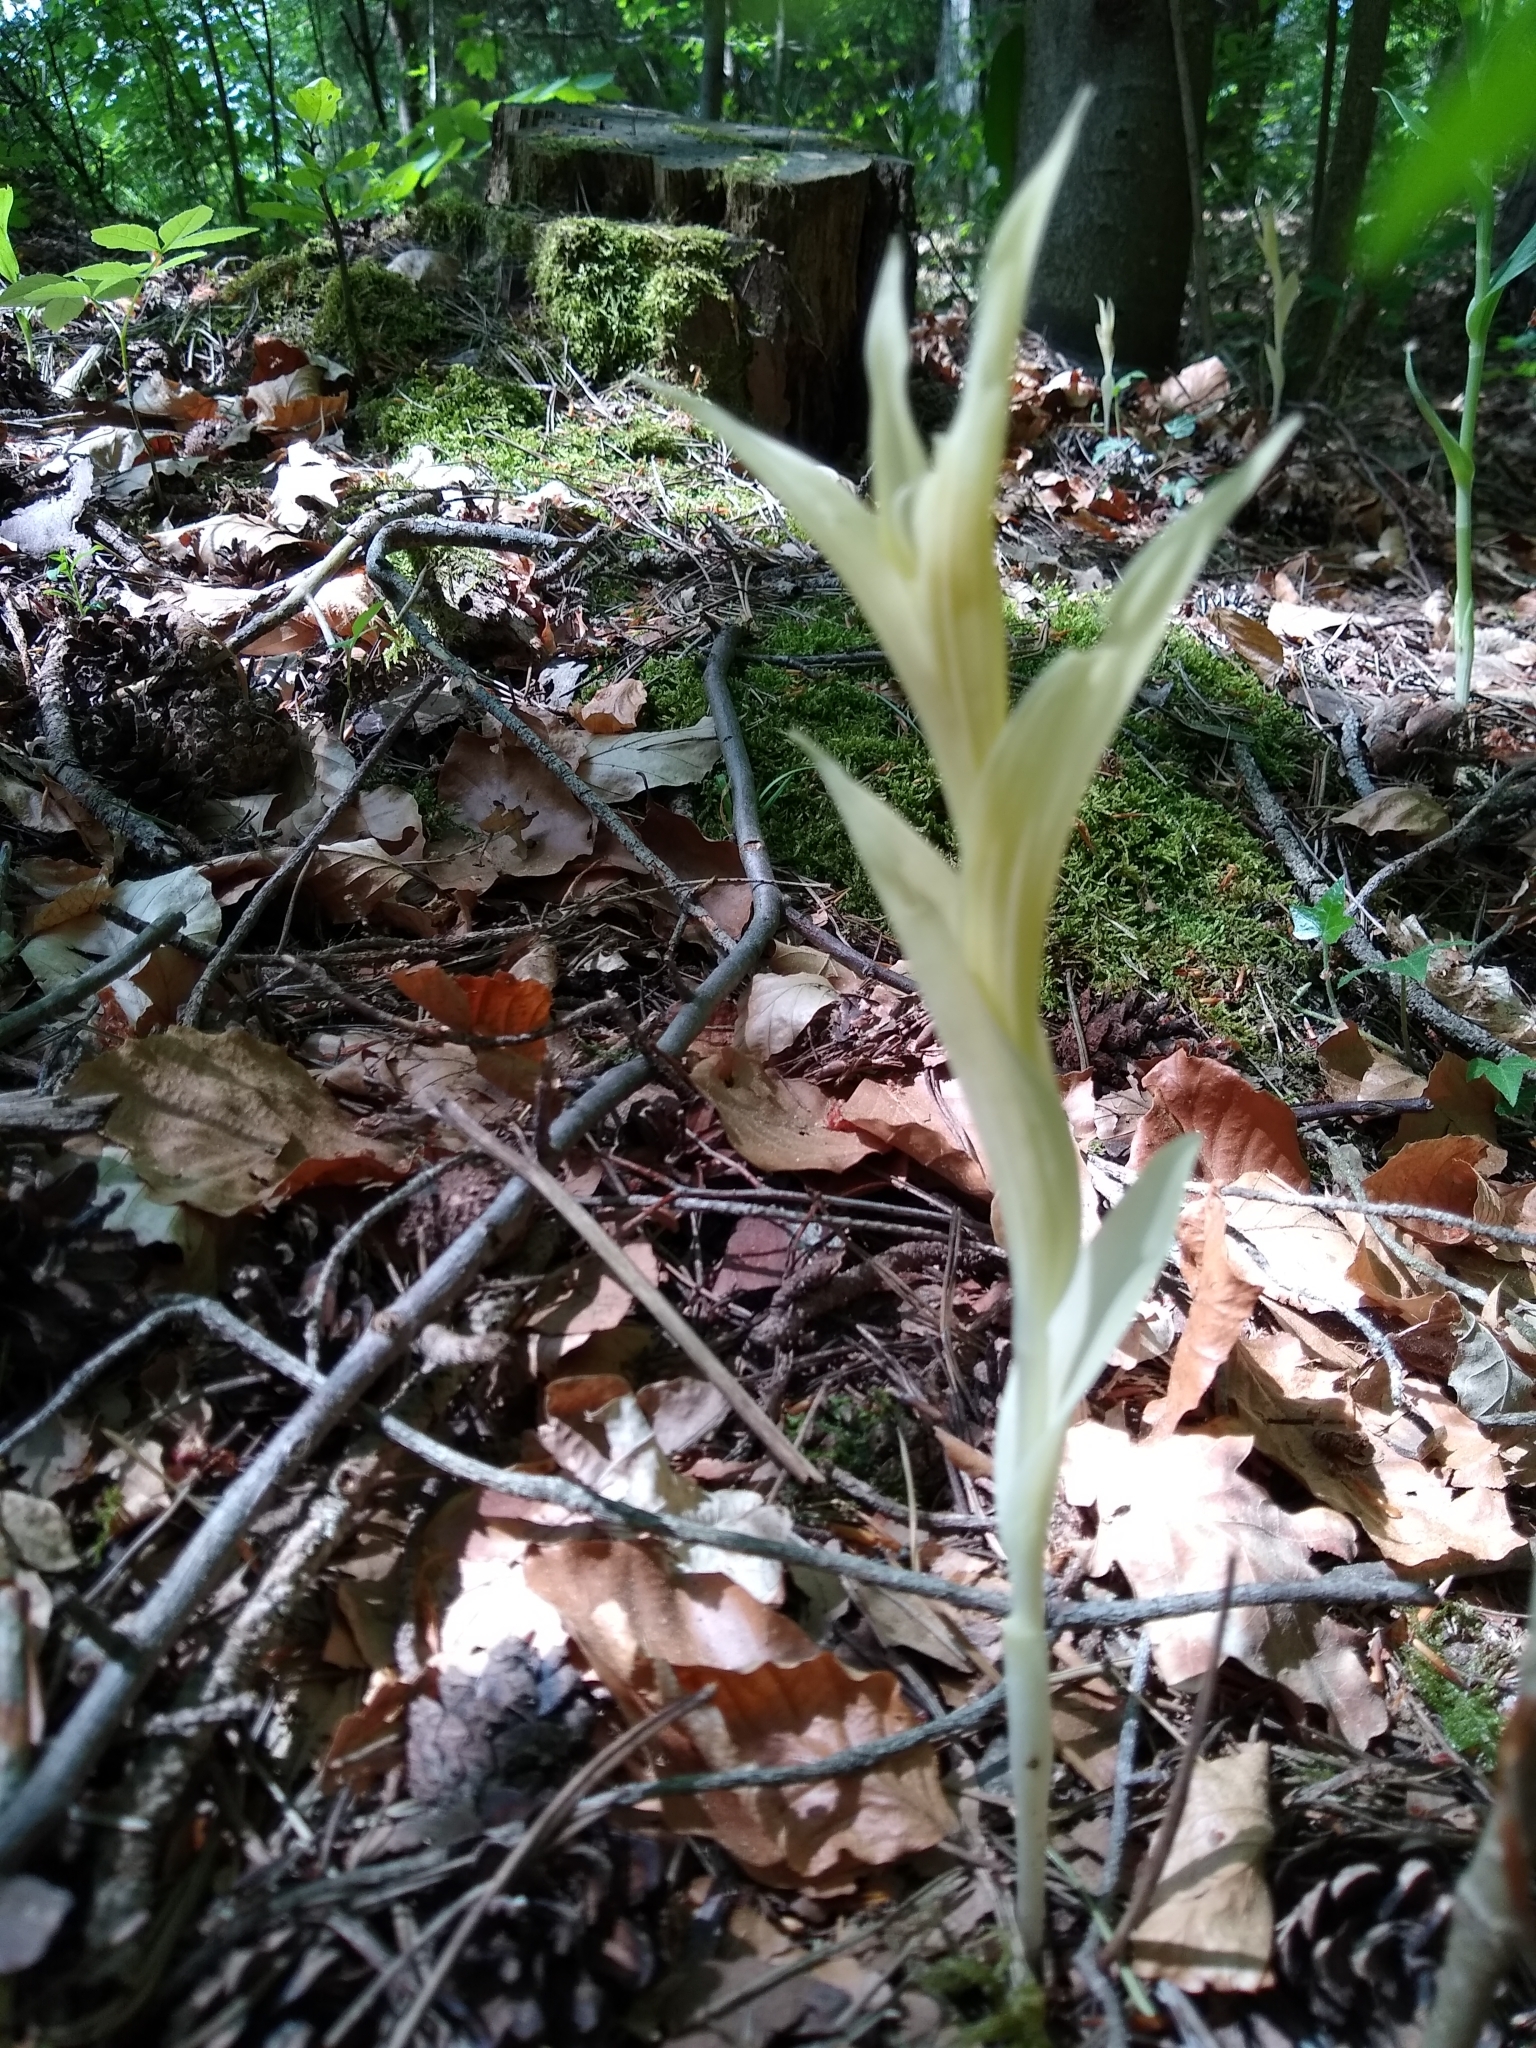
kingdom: Plantae
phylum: Tracheophyta
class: Liliopsida
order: Asparagales
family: Orchidaceae
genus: Cephalanthera
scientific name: Cephalanthera damasonium
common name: White helleborine
